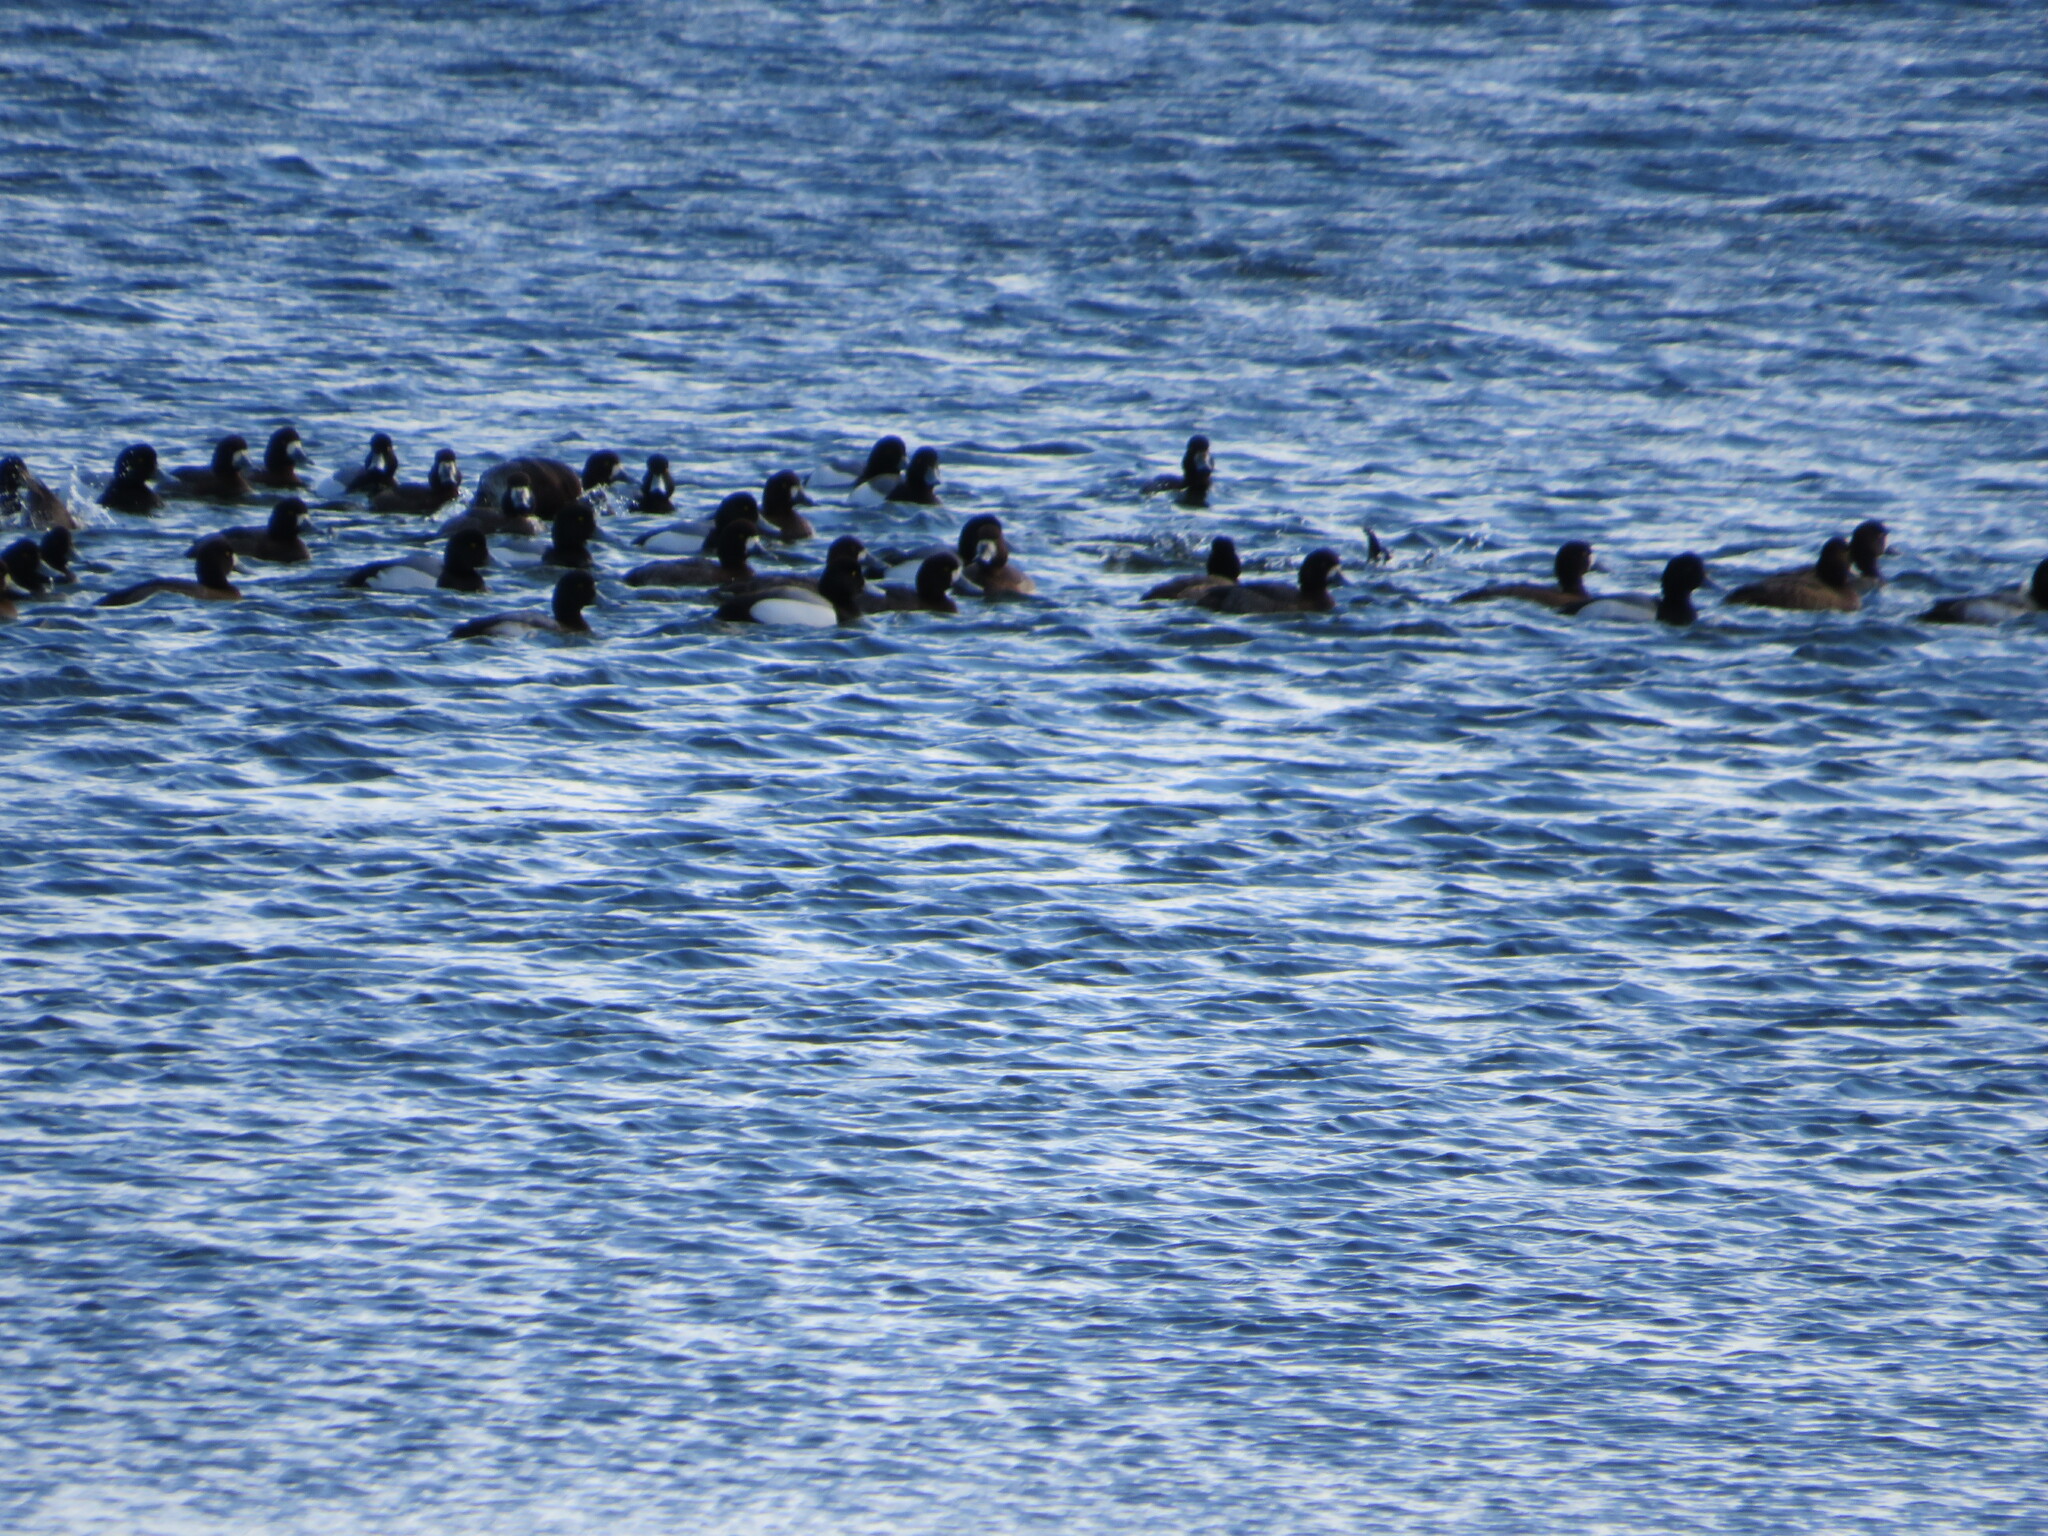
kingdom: Animalia
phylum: Chordata
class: Aves
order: Anseriformes
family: Anatidae
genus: Aythya
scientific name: Aythya marila
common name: Greater scaup
